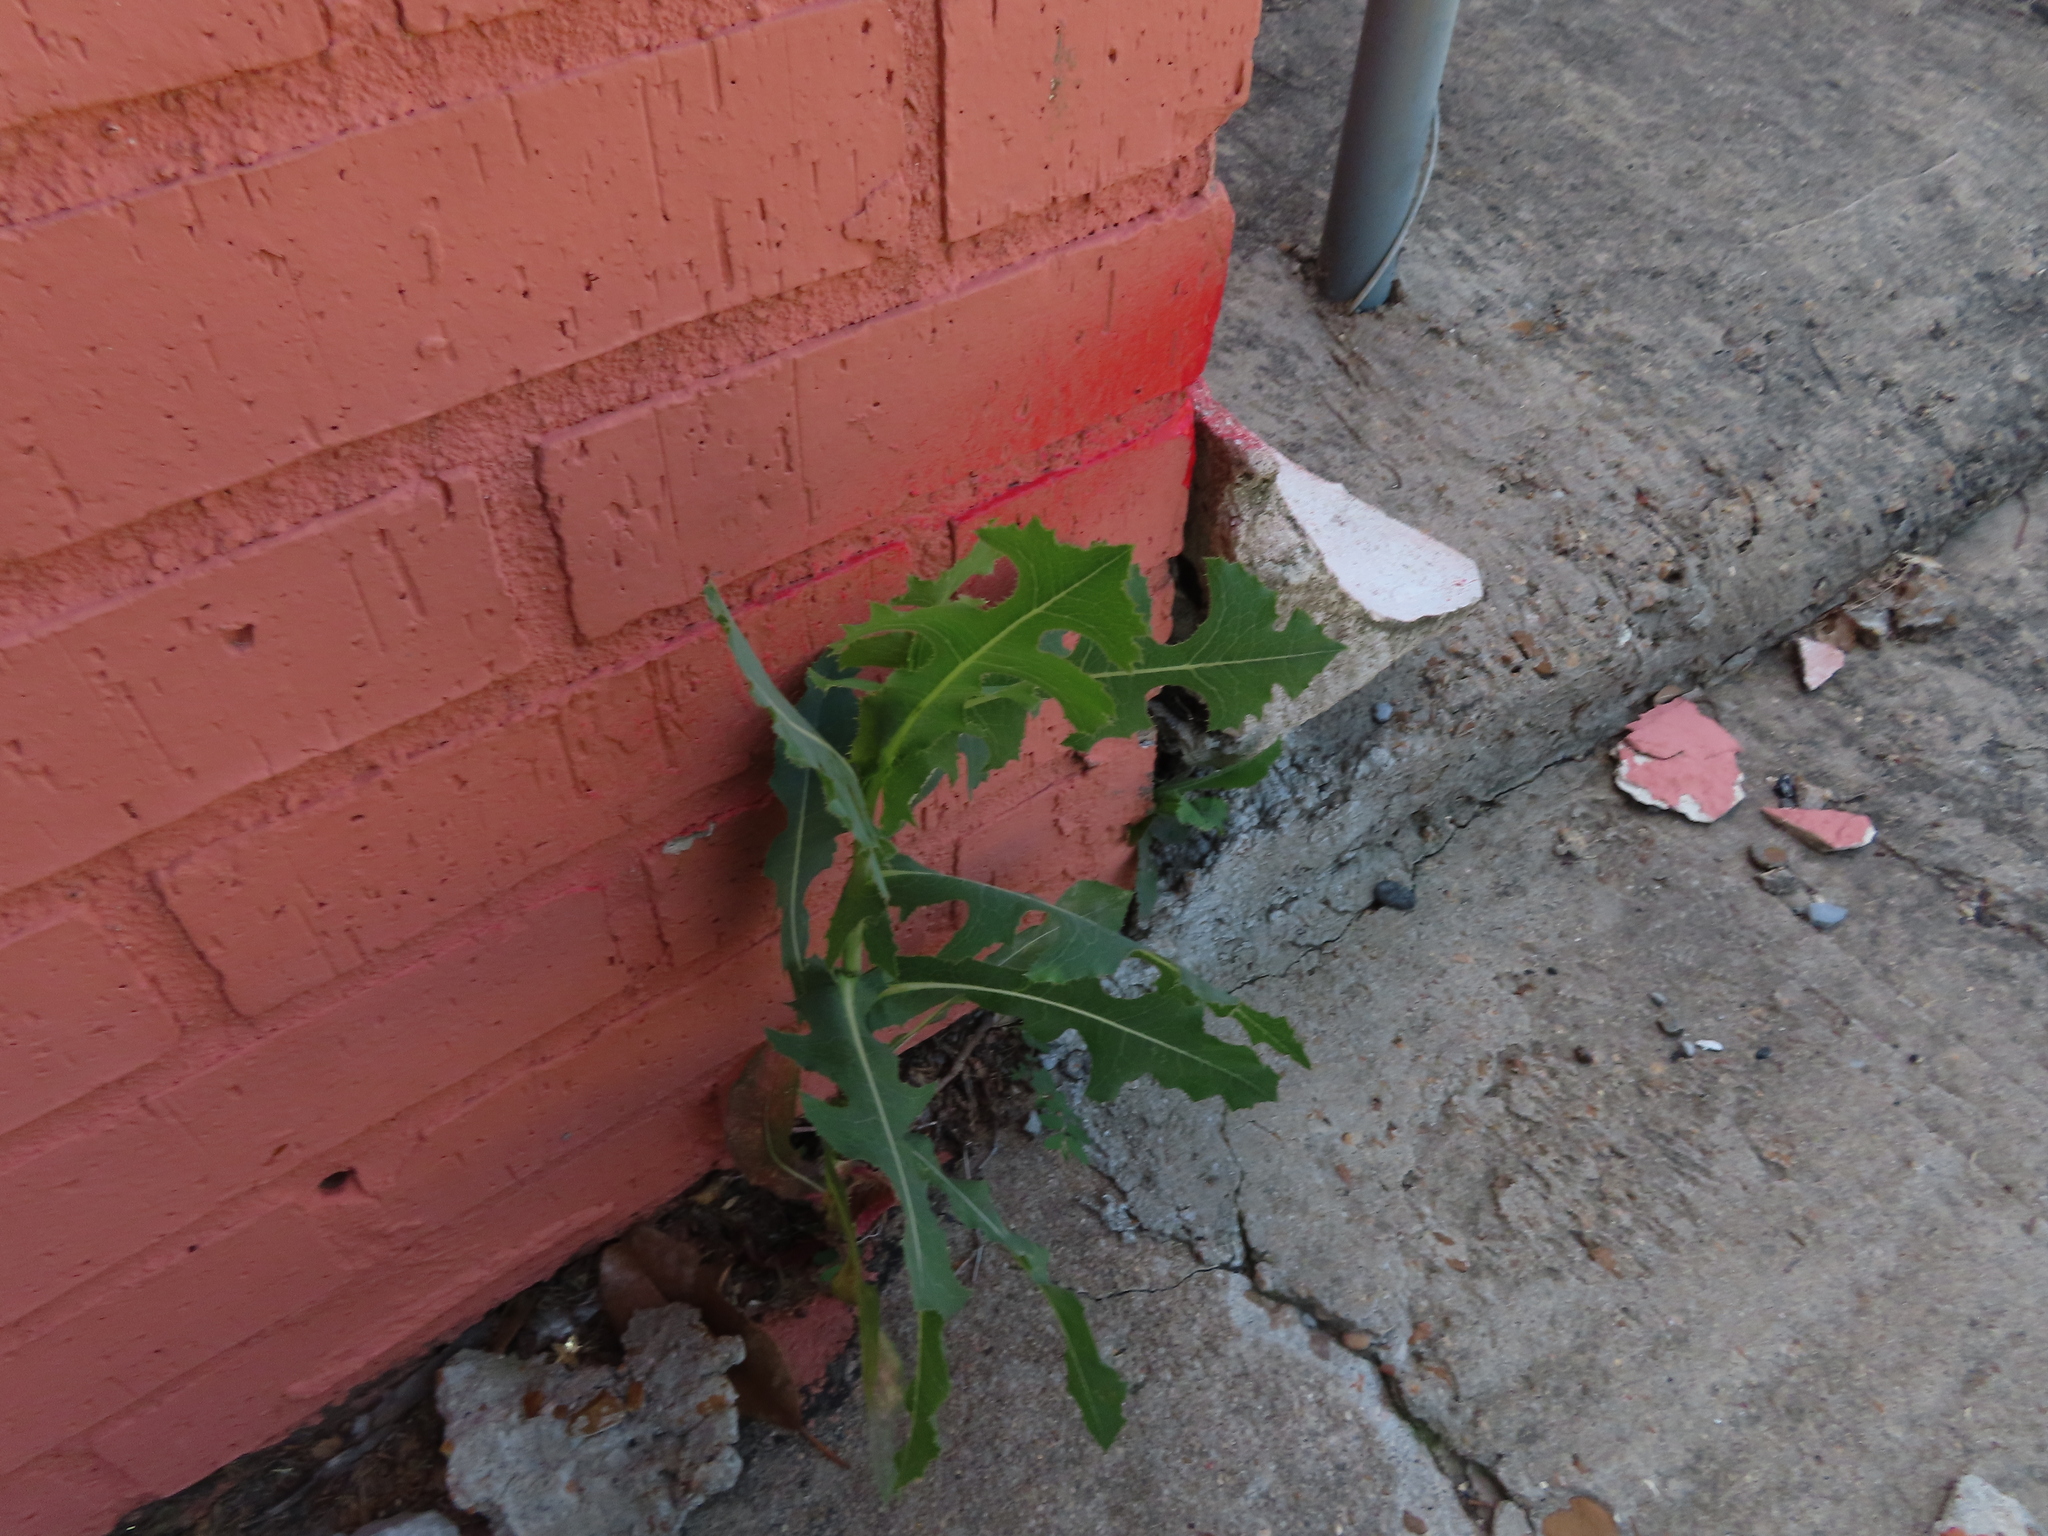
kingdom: Plantae
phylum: Tracheophyta
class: Magnoliopsida
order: Asterales
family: Asteraceae
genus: Lactuca
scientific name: Lactuca serriola
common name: Prickly lettuce
